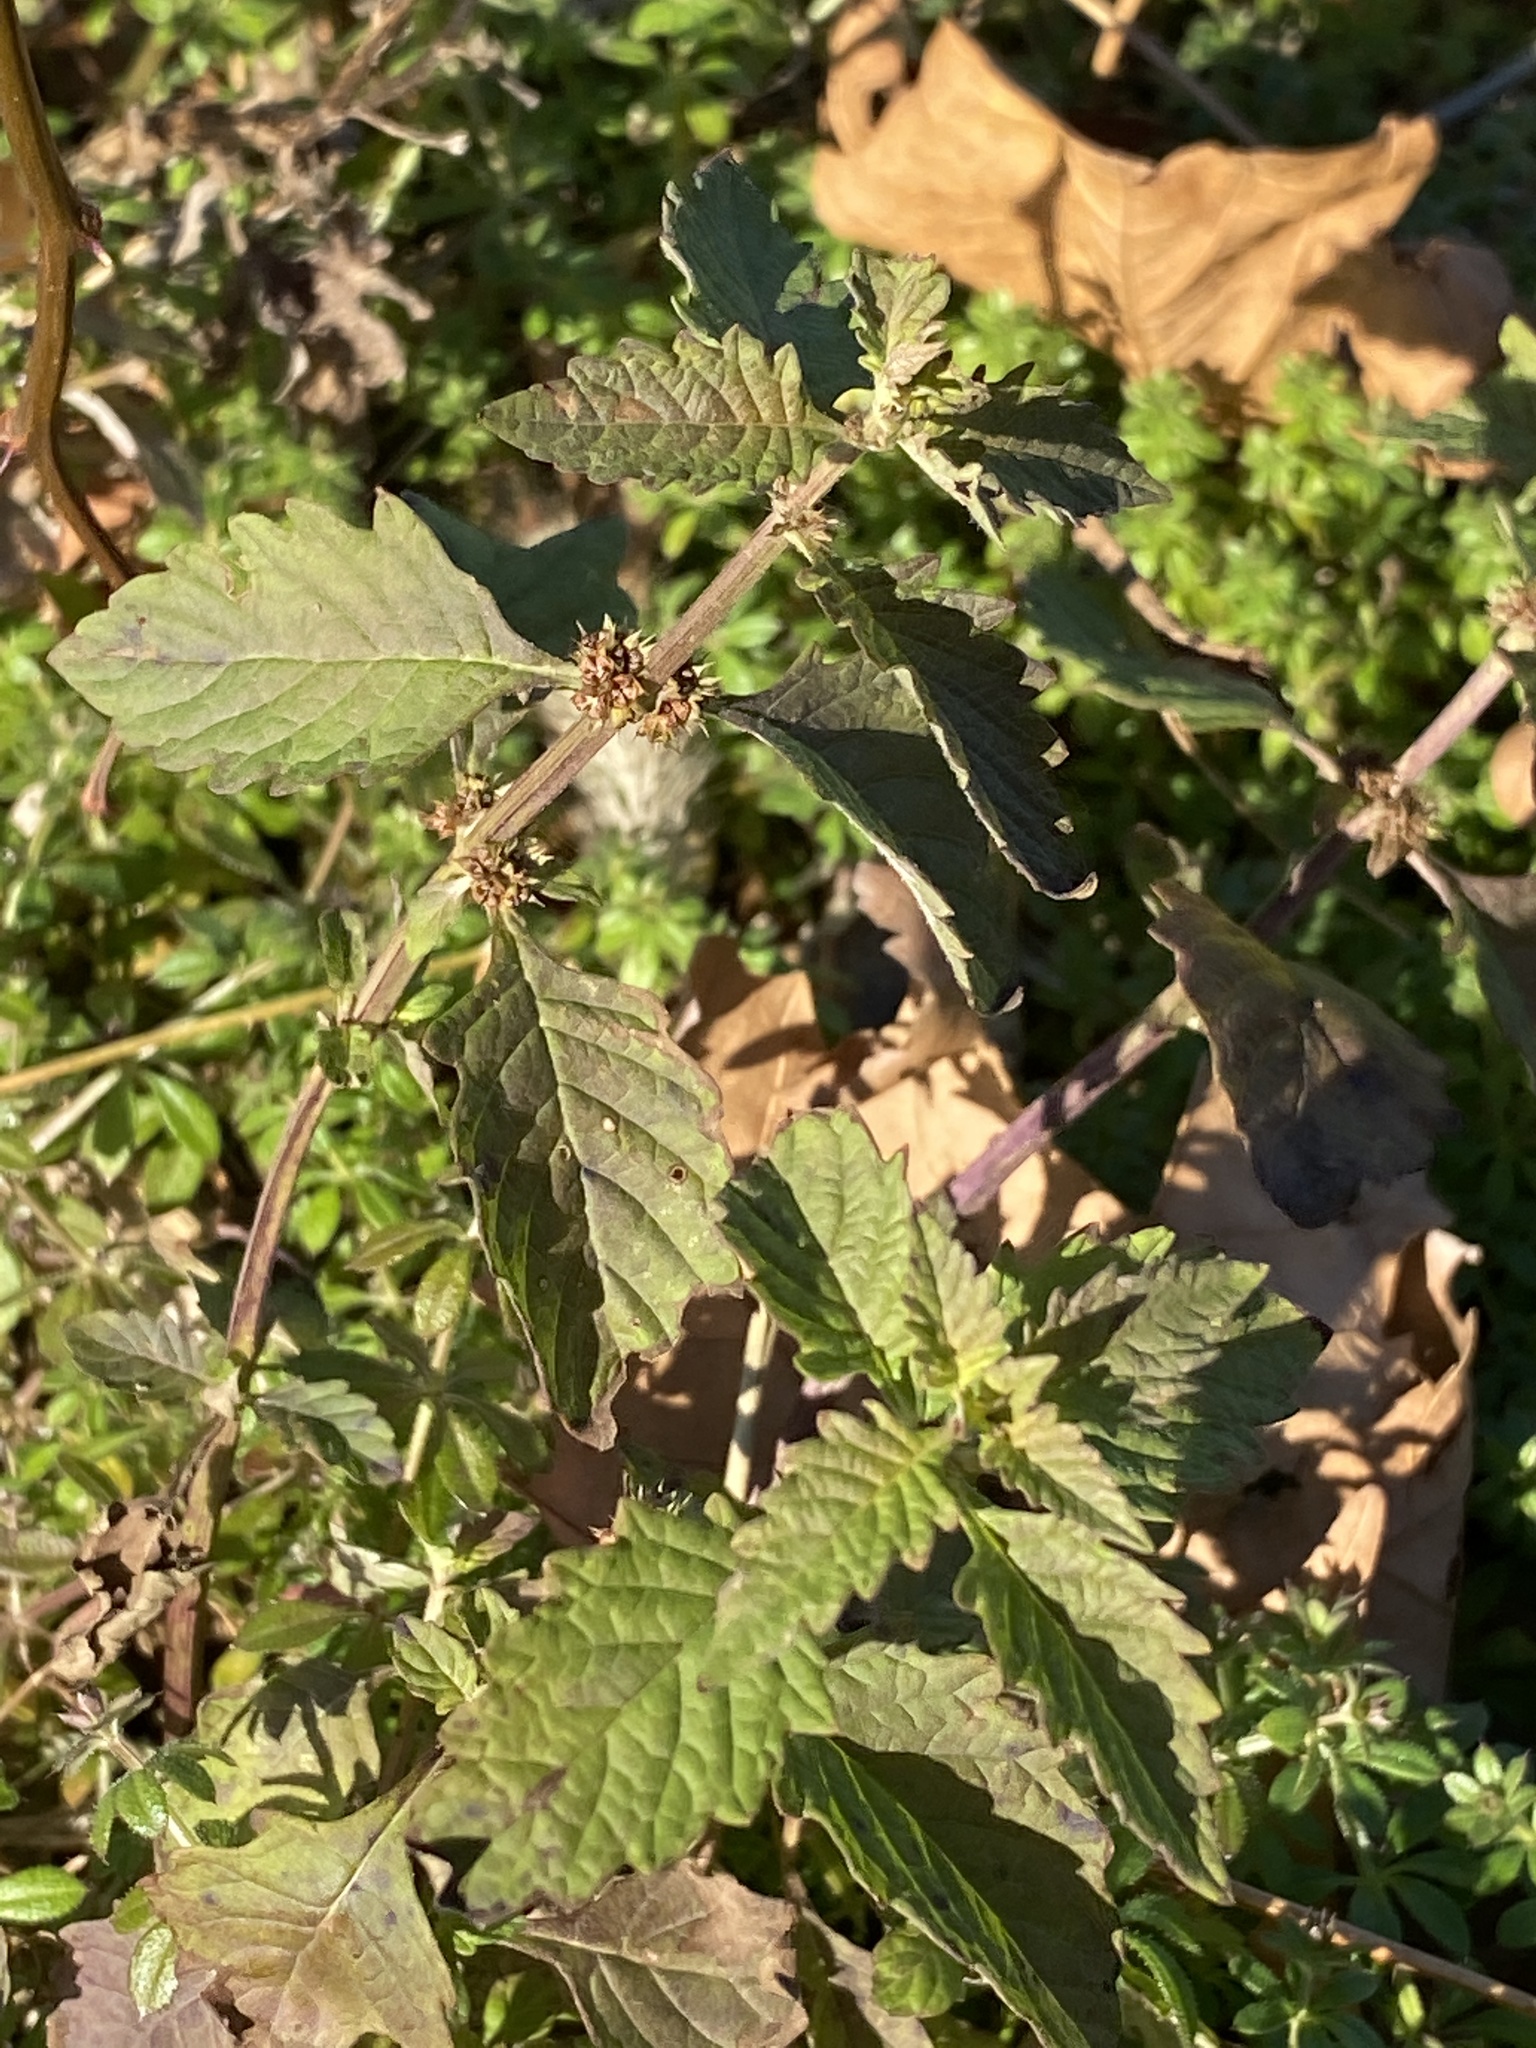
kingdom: Plantae
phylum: Tracheophyta
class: Magnoliopsida
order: Lamiales
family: Lamiaceae
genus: Lycopus
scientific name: Lycopus europaeus
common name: European bugleweed
